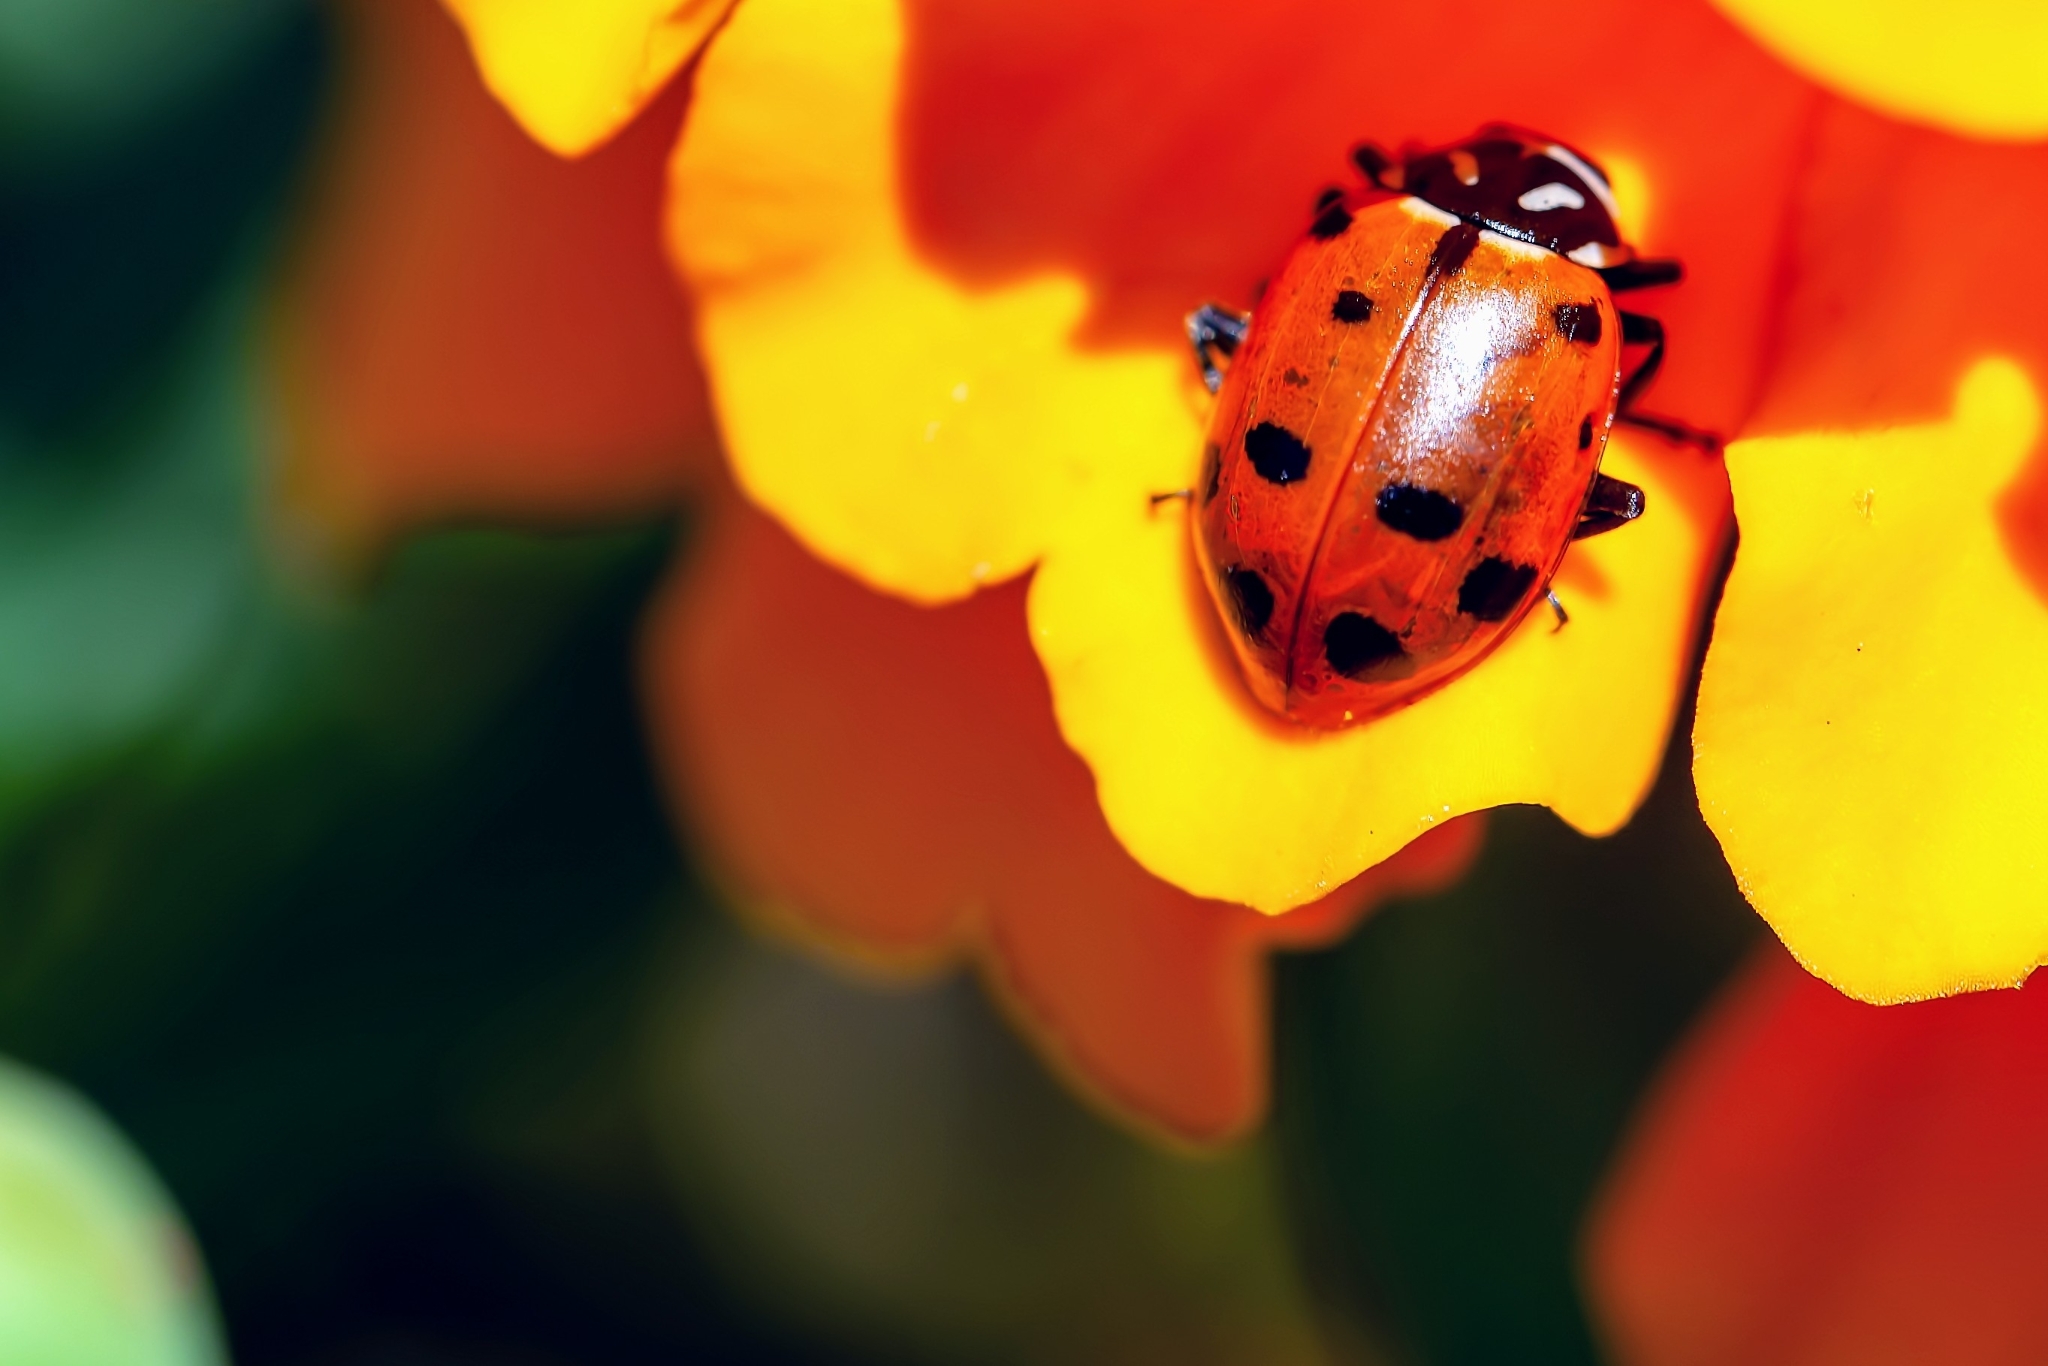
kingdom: Animalia
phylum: Arthropoda
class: Insecta
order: Coleoptera
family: Coccinellidae
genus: Hippodamia
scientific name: Hippodamia convergens
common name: Convergent lady beetle
